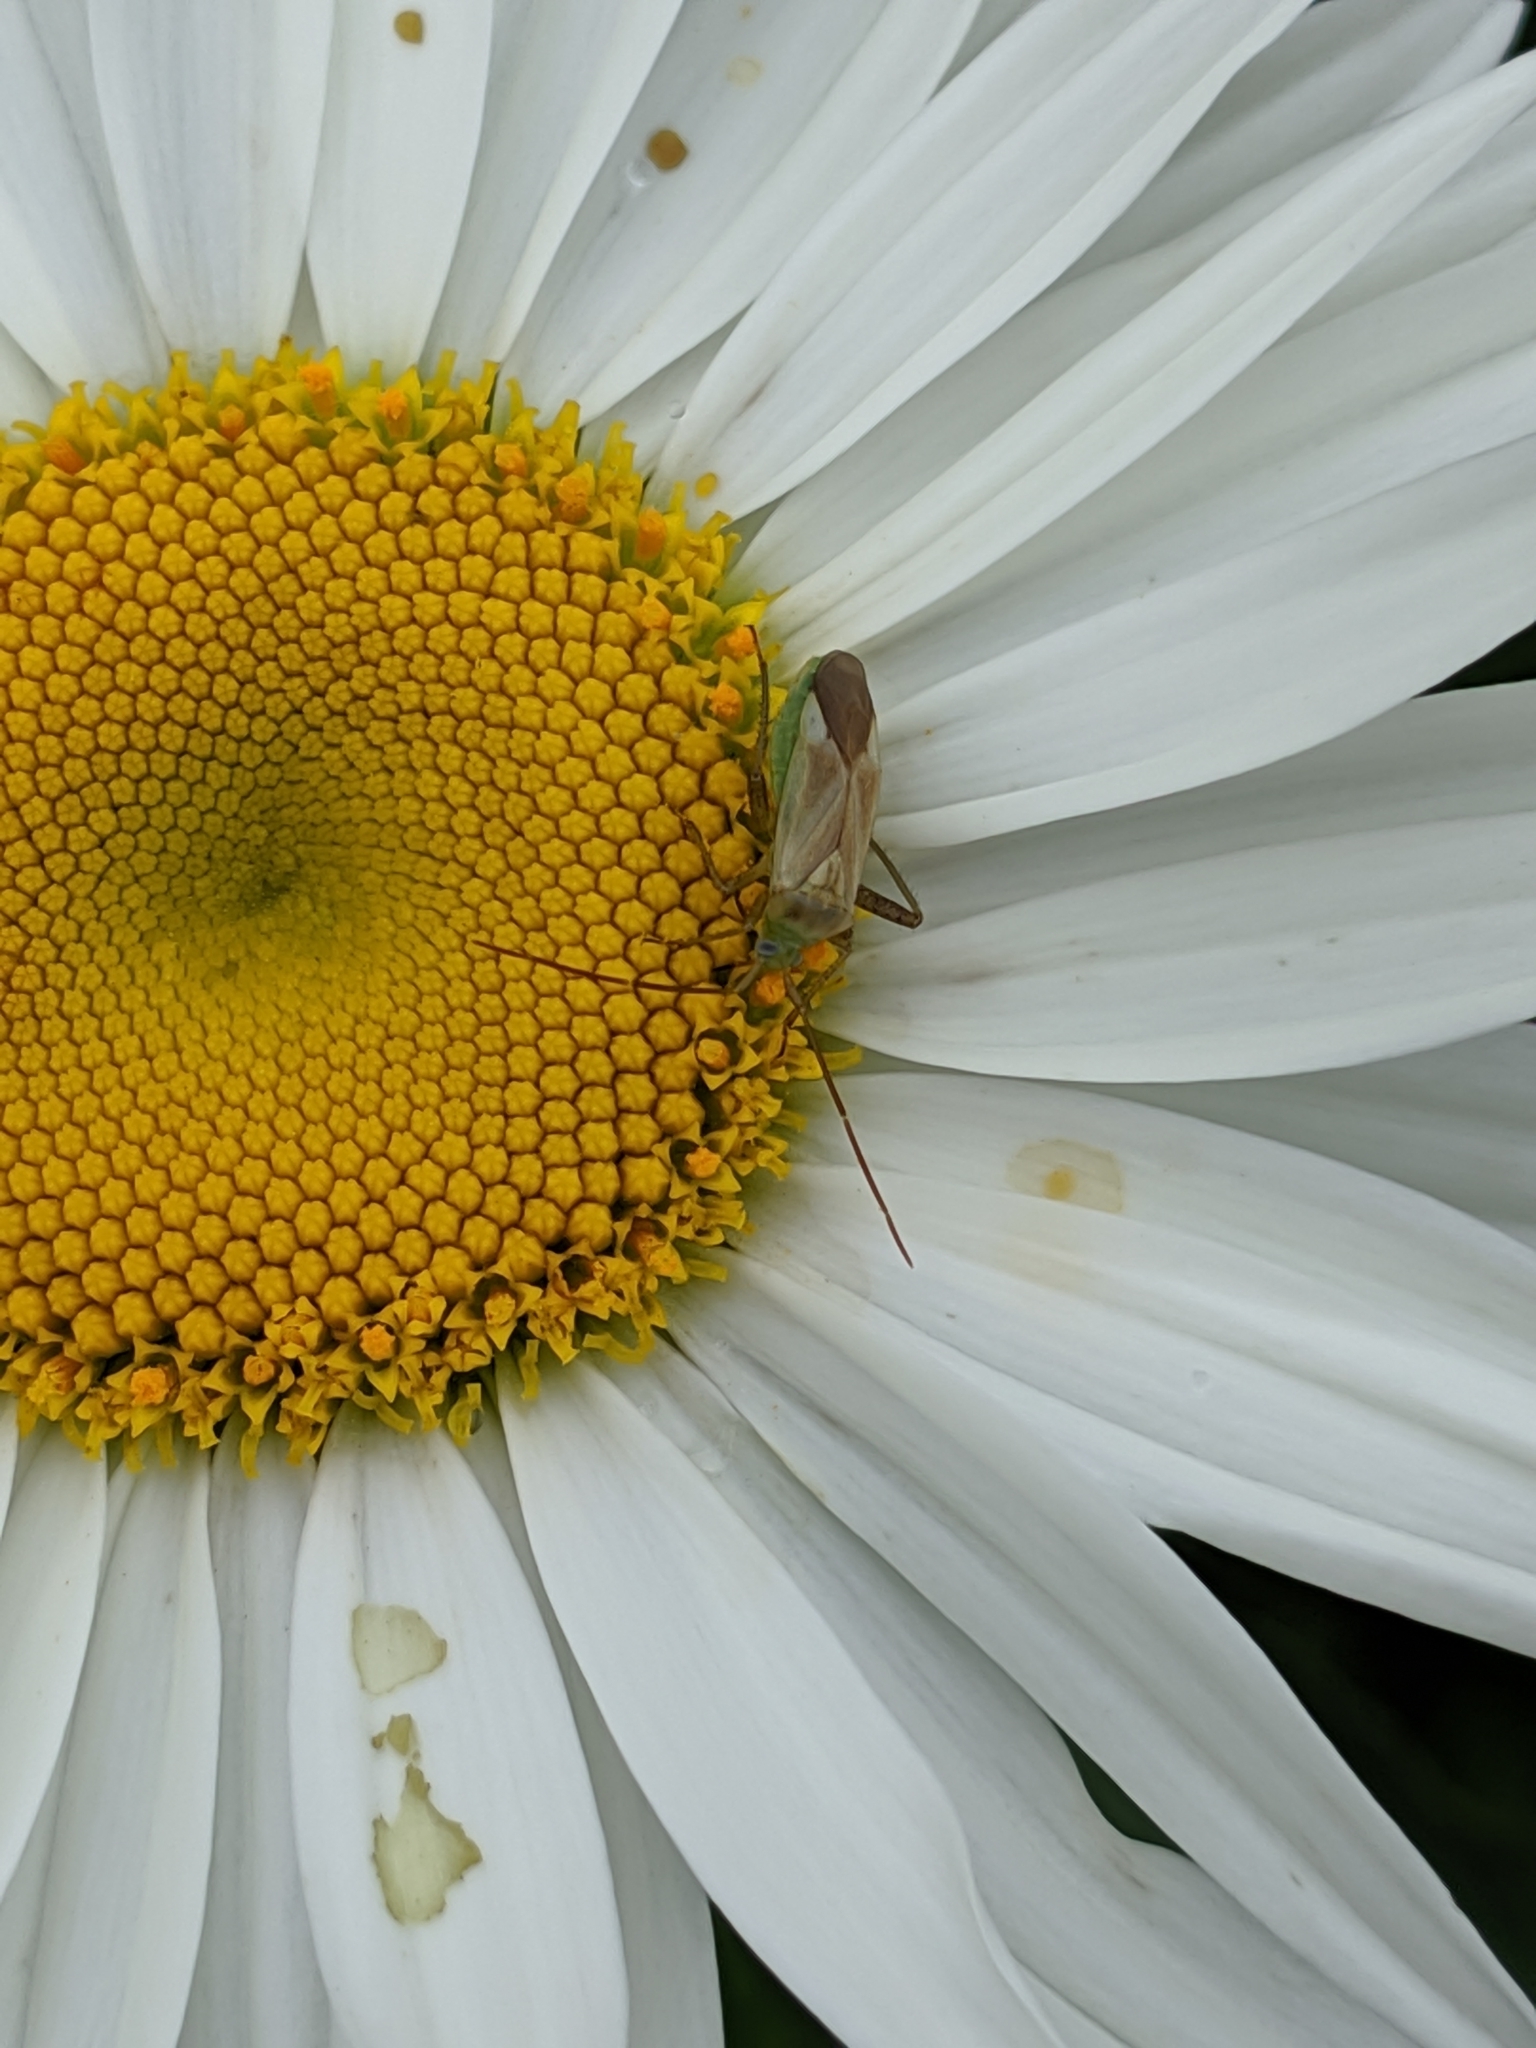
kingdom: Animalia
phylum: Arthropoda
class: Insecta
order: Hemiptera
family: Miridae
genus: Adelphocoris
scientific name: Adelphocoris lineolatus
